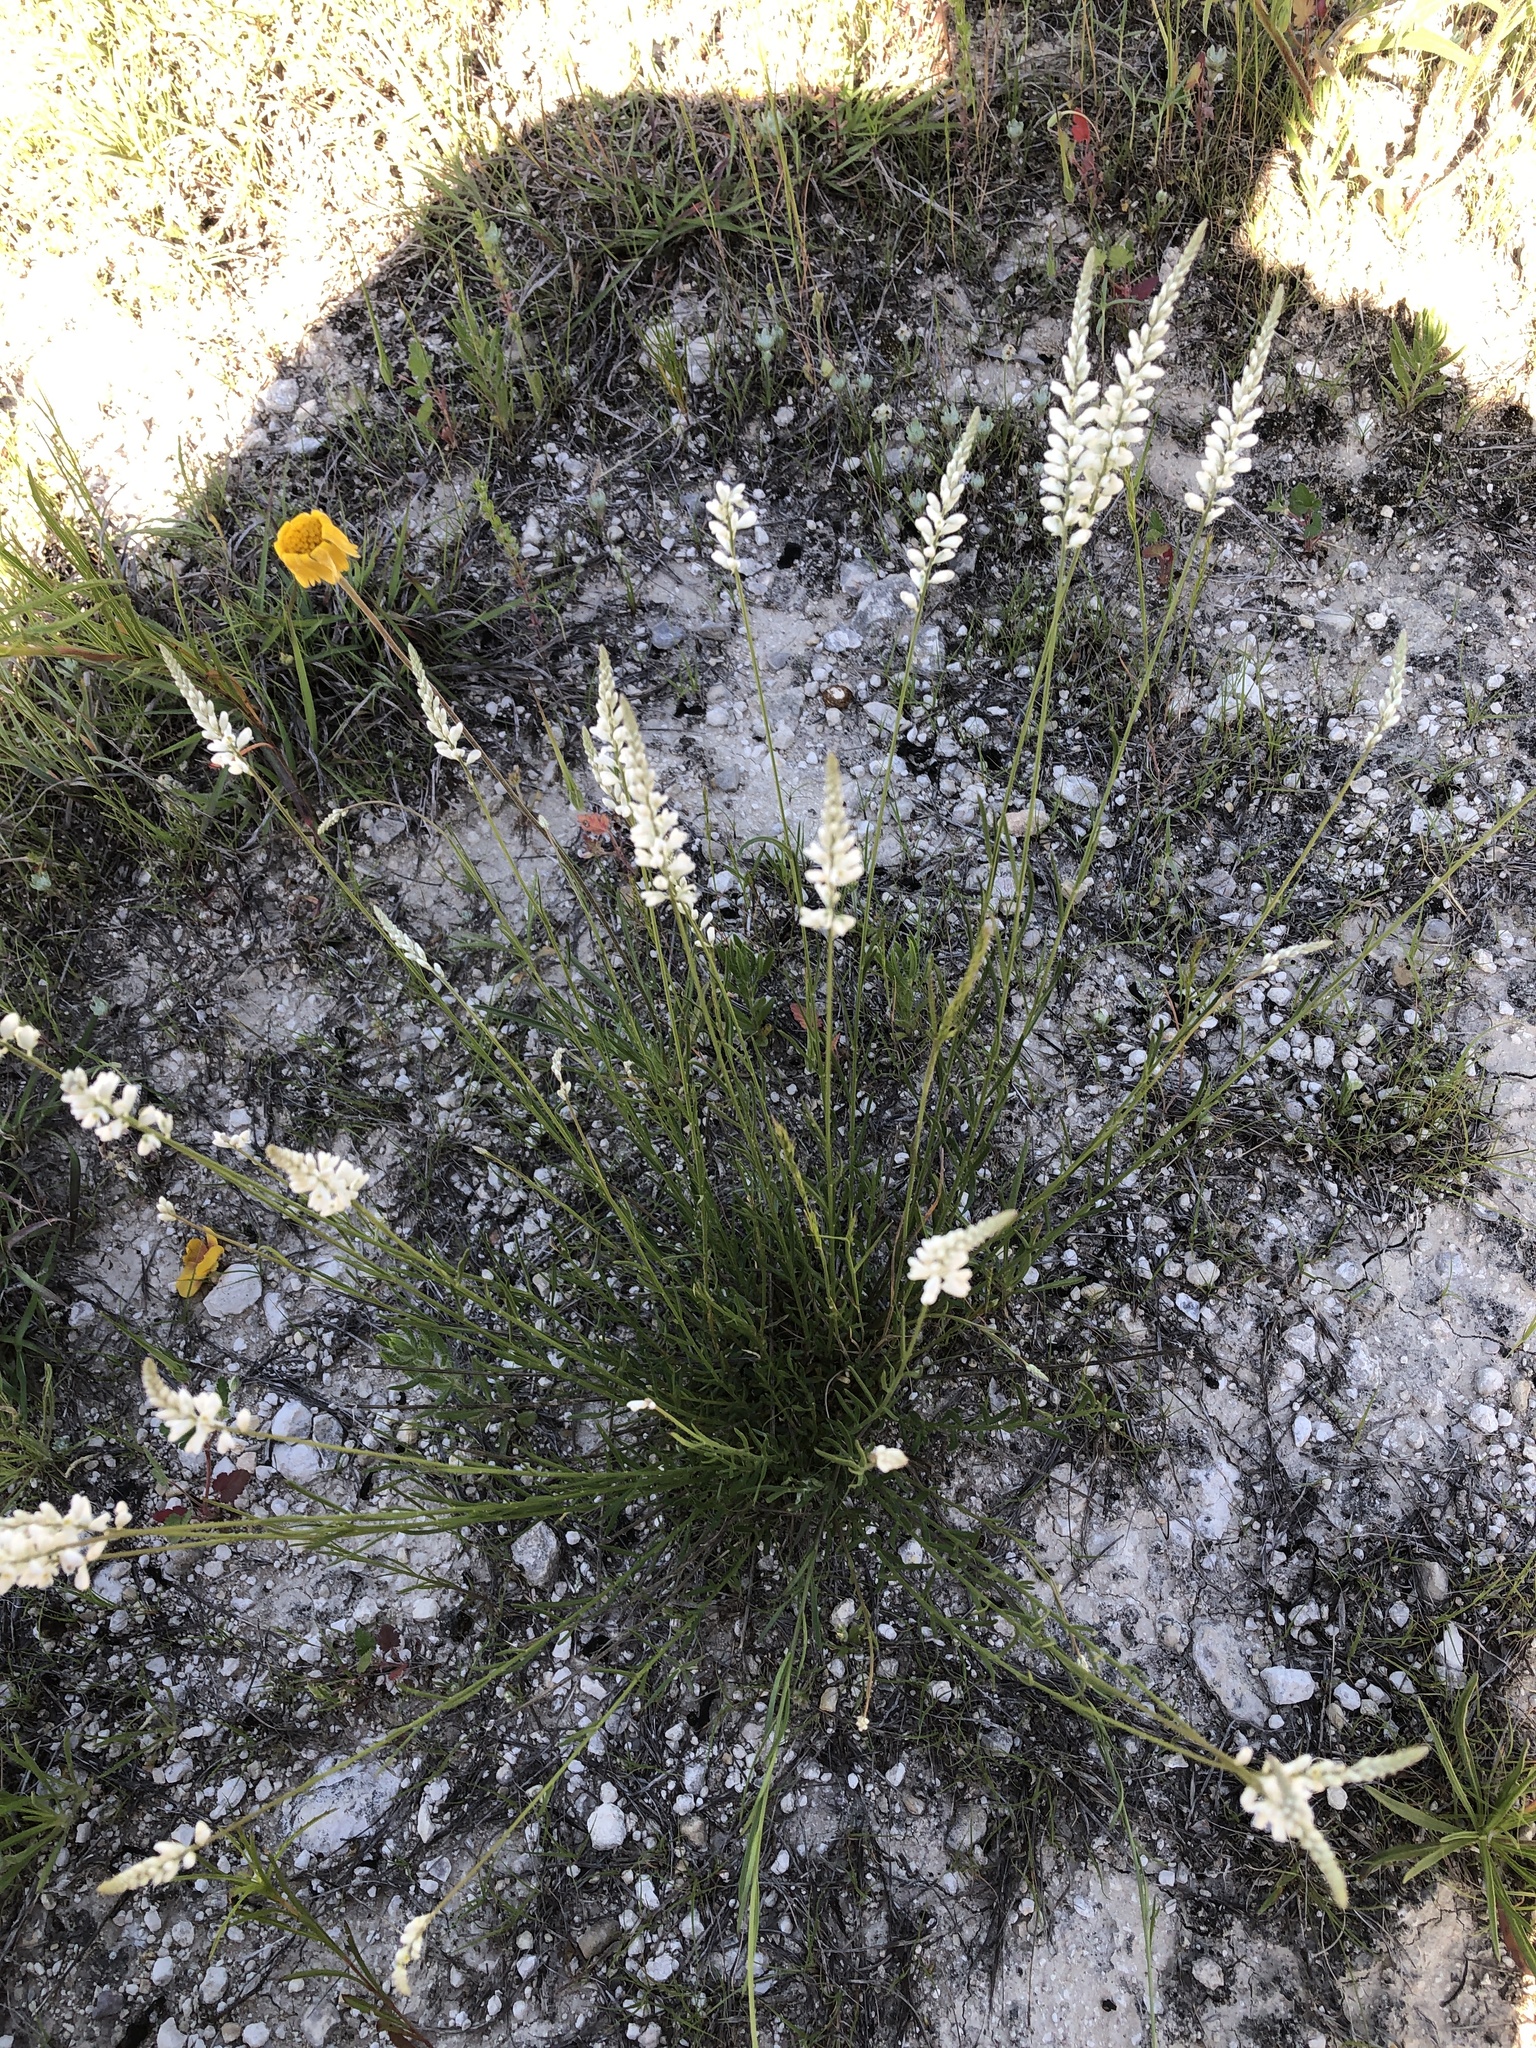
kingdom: Plantae
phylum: Tracheophyta
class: Magnoliopsida
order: Fabales
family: Polygalaceae
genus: Polygala
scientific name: Polygala alba
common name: White milkwort
